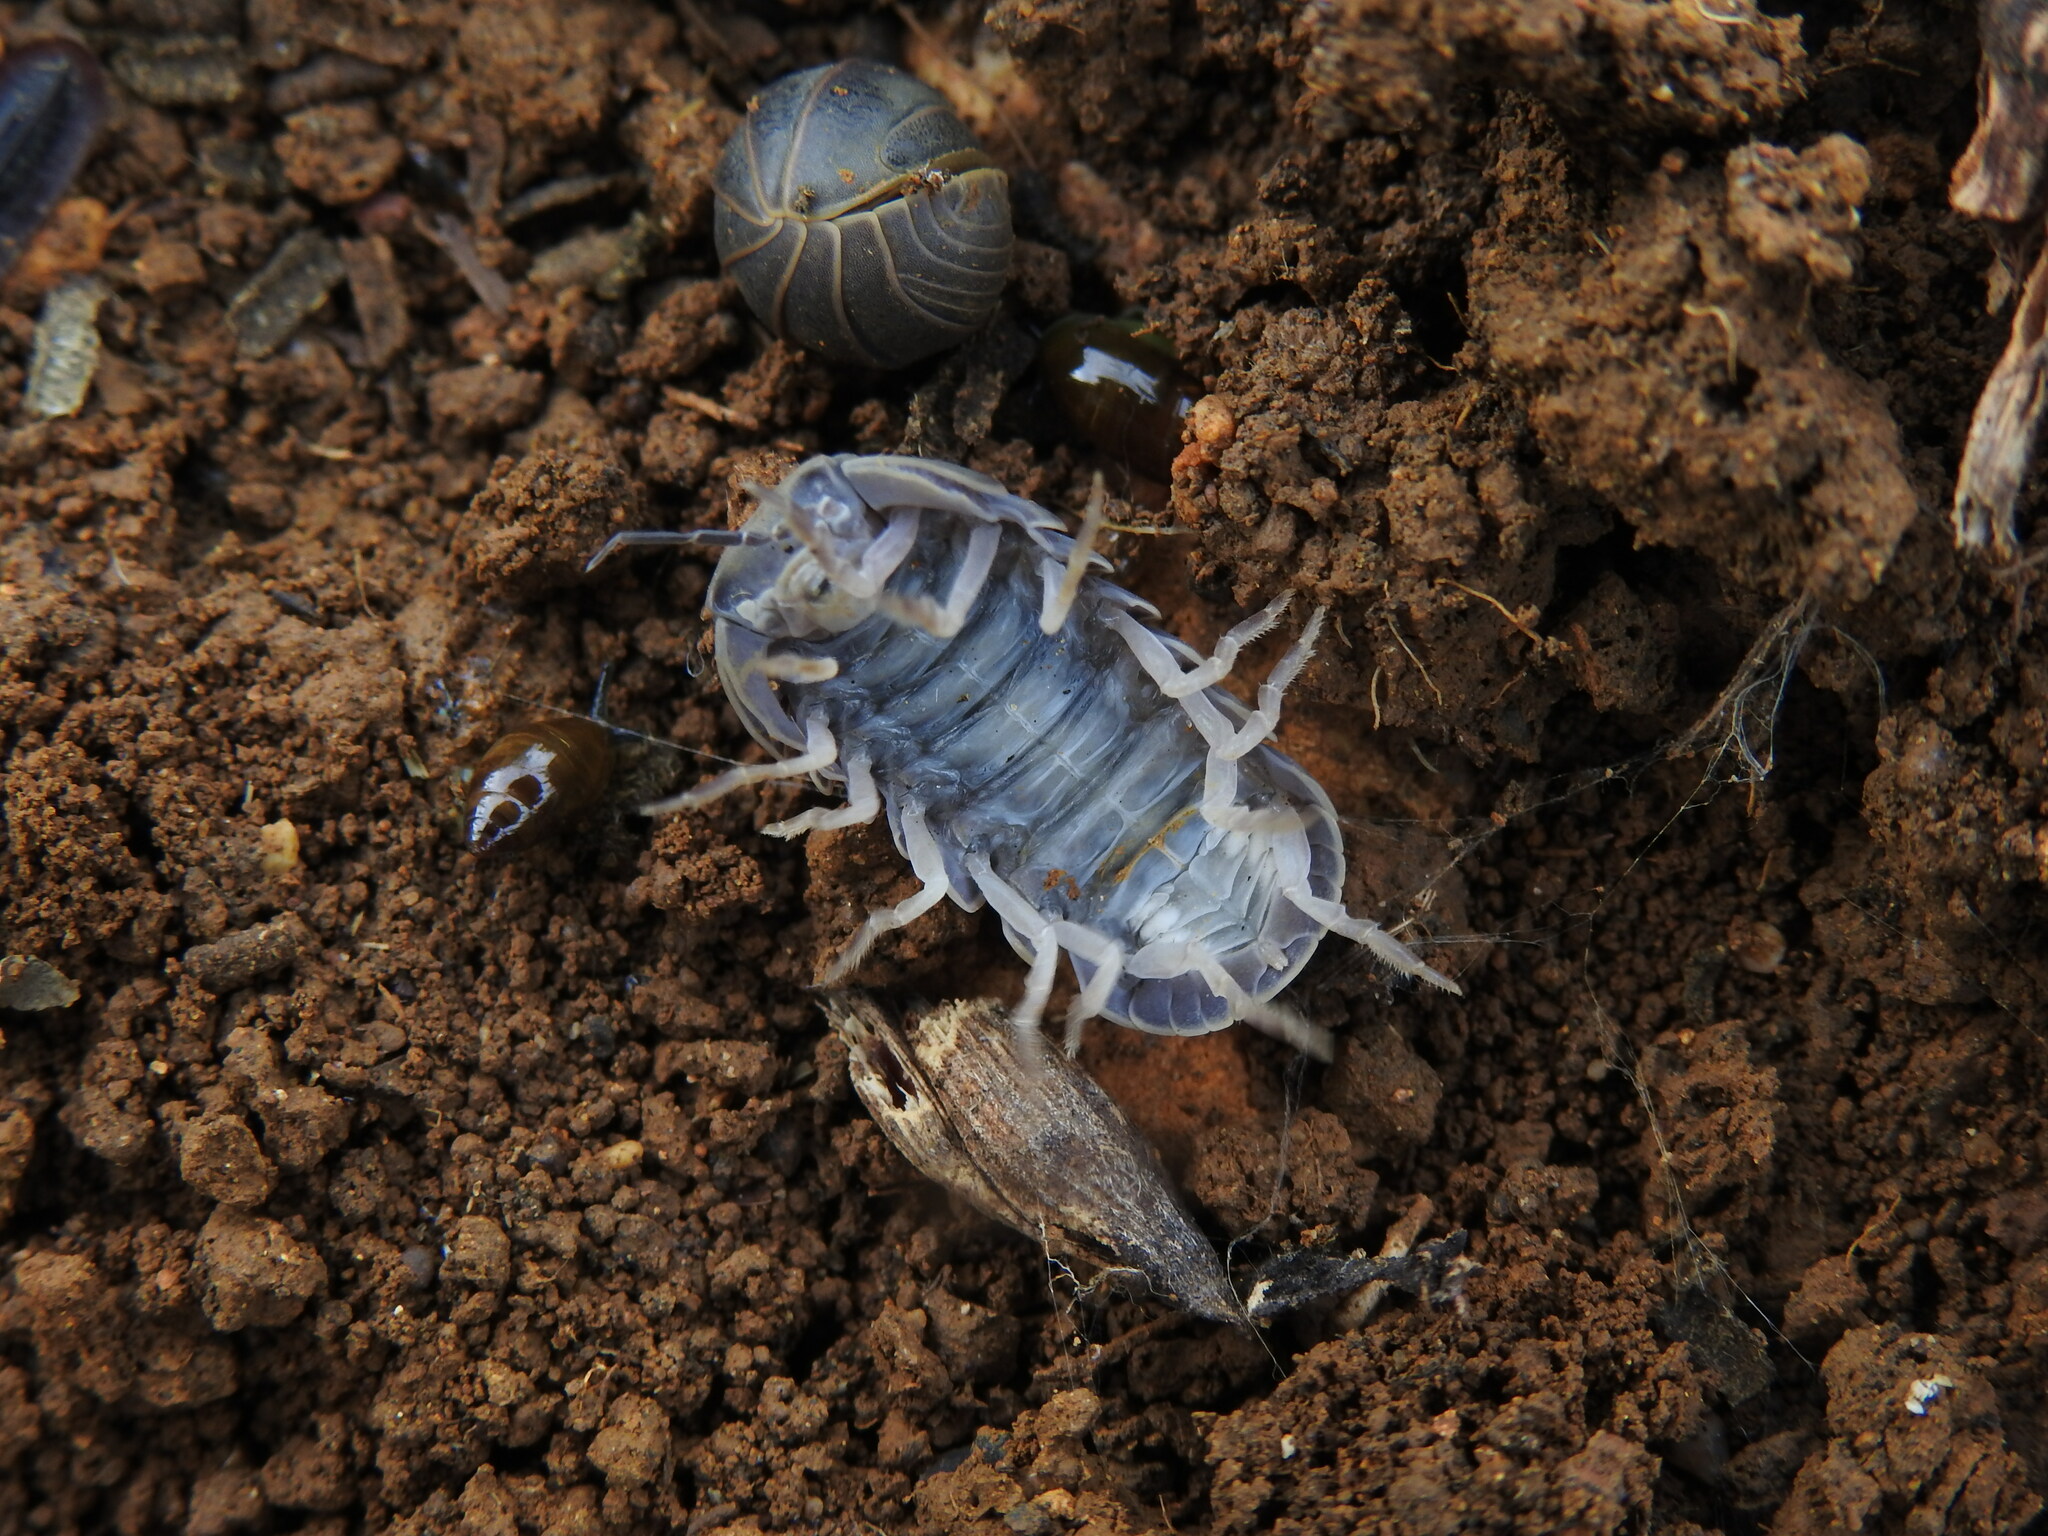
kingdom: Animalia
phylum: Arthropoda
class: Malacostraca
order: Isopoda
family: Armadillidae
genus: Armadillo
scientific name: Armadillo officinalis
